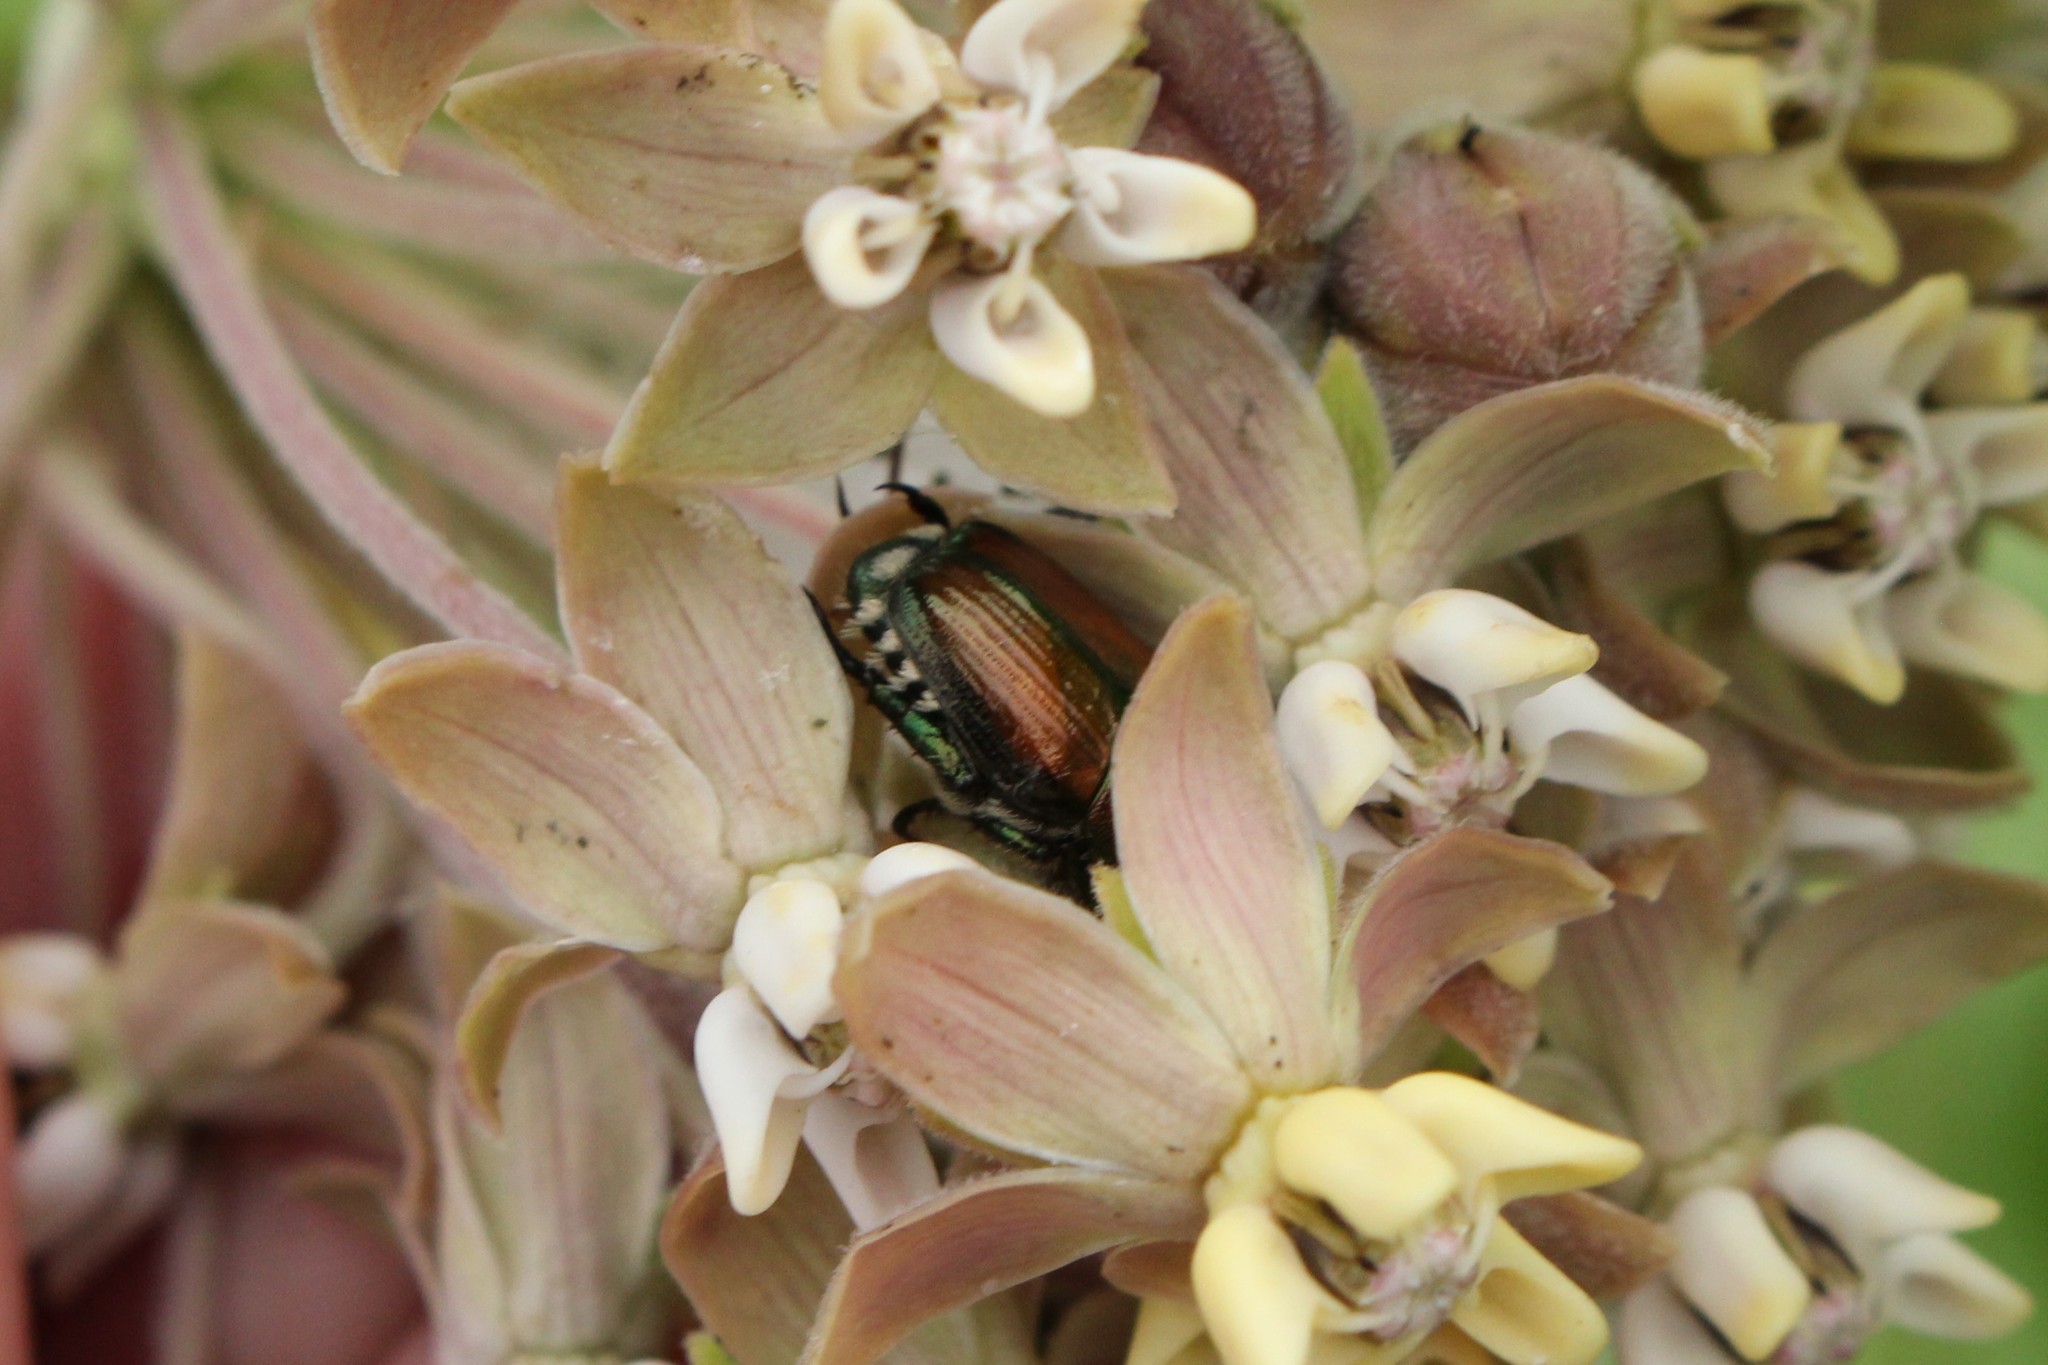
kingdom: Animalia
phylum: Arthropoda
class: Insecta
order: Coleoptera
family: Scarabaeidae
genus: Popillia
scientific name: Popillia japonica
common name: Japanese beetle
